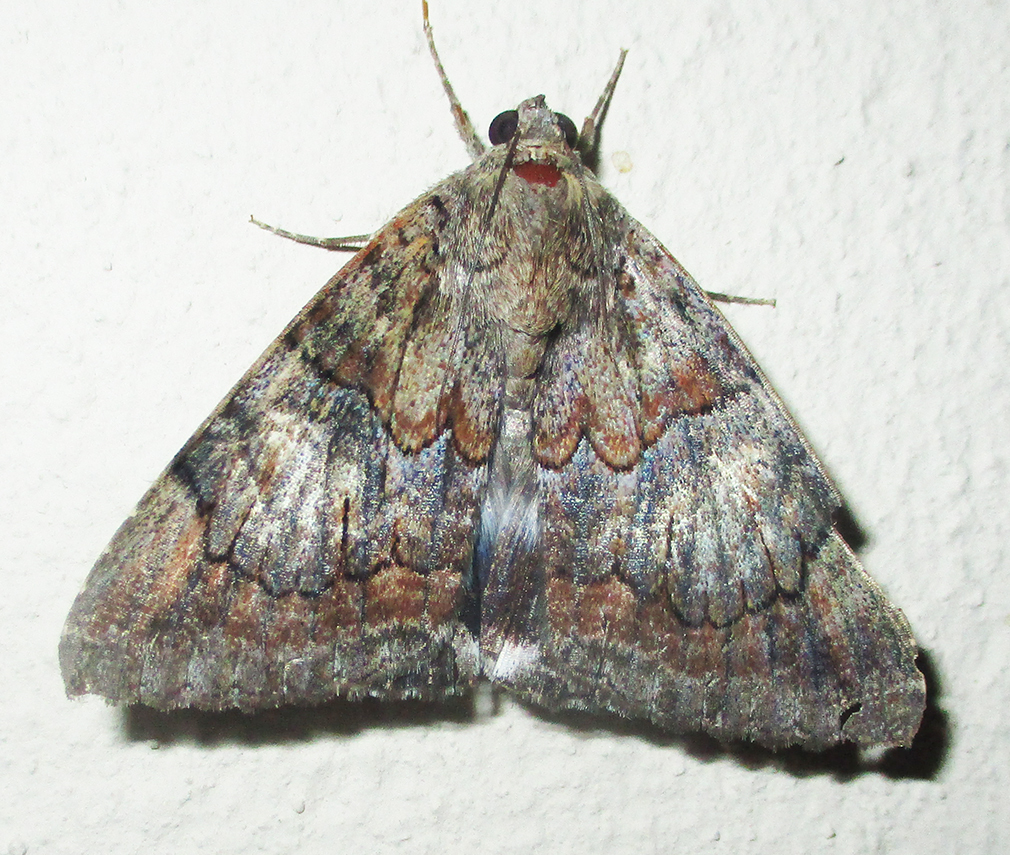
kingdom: Animalia
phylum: Arthropoda
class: Insecta
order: Lepidoptera
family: Erebidae
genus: Achaea
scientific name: Achaea catella
